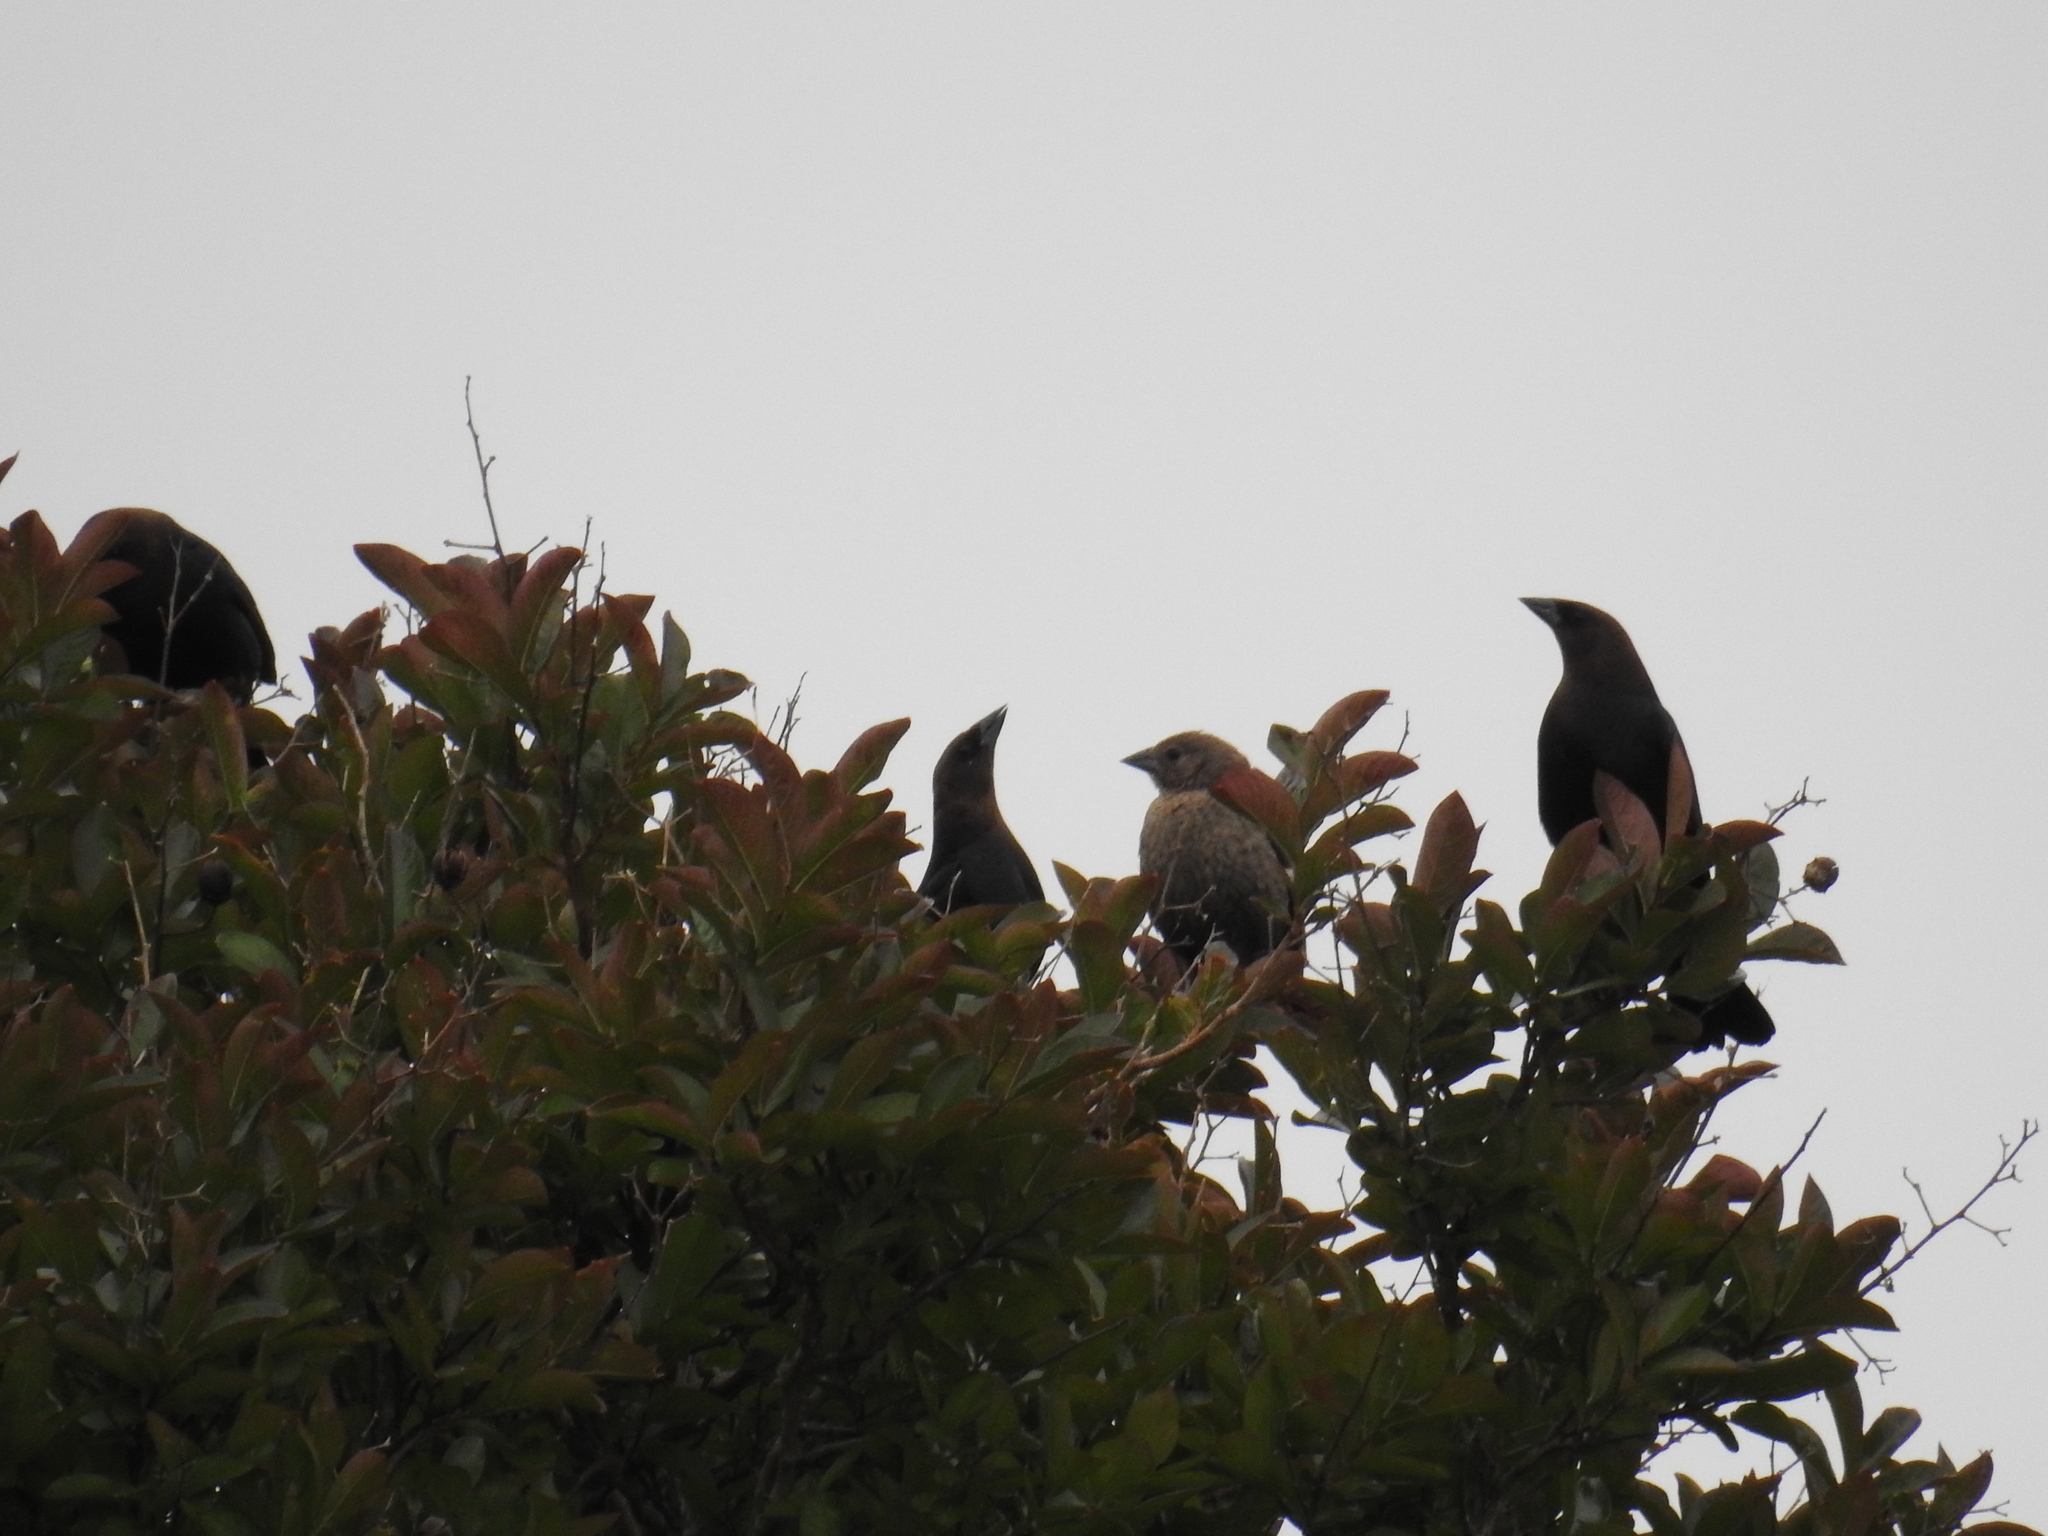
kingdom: Animalia
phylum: Chordata
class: Aves
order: Passeriformes
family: Icteridae
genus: Molothrus
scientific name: Molothrus ater
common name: Brown-headed cowbird
